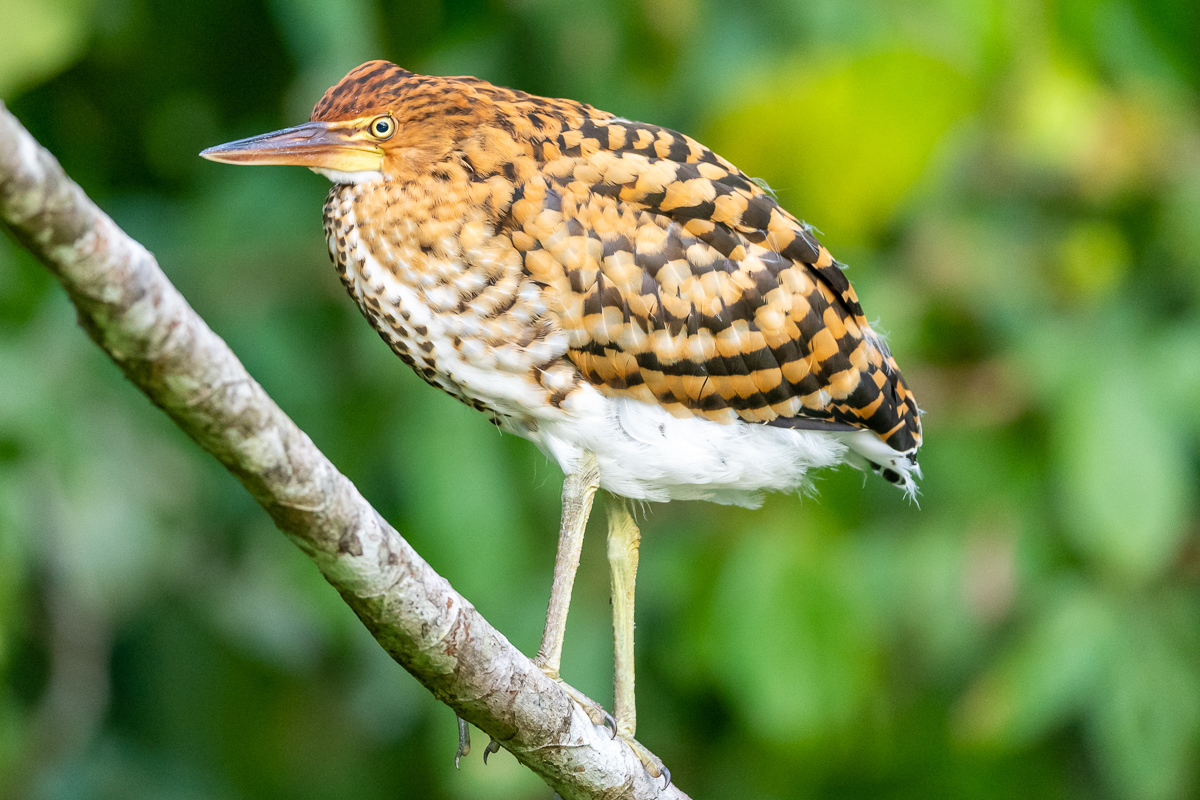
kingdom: Animalia
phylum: Chordata
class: Aves
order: Pelecaniformes
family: Ardeidae
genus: Tigrisoma
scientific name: Tigrisoma lineatum
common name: Rufescent tiger-heron
